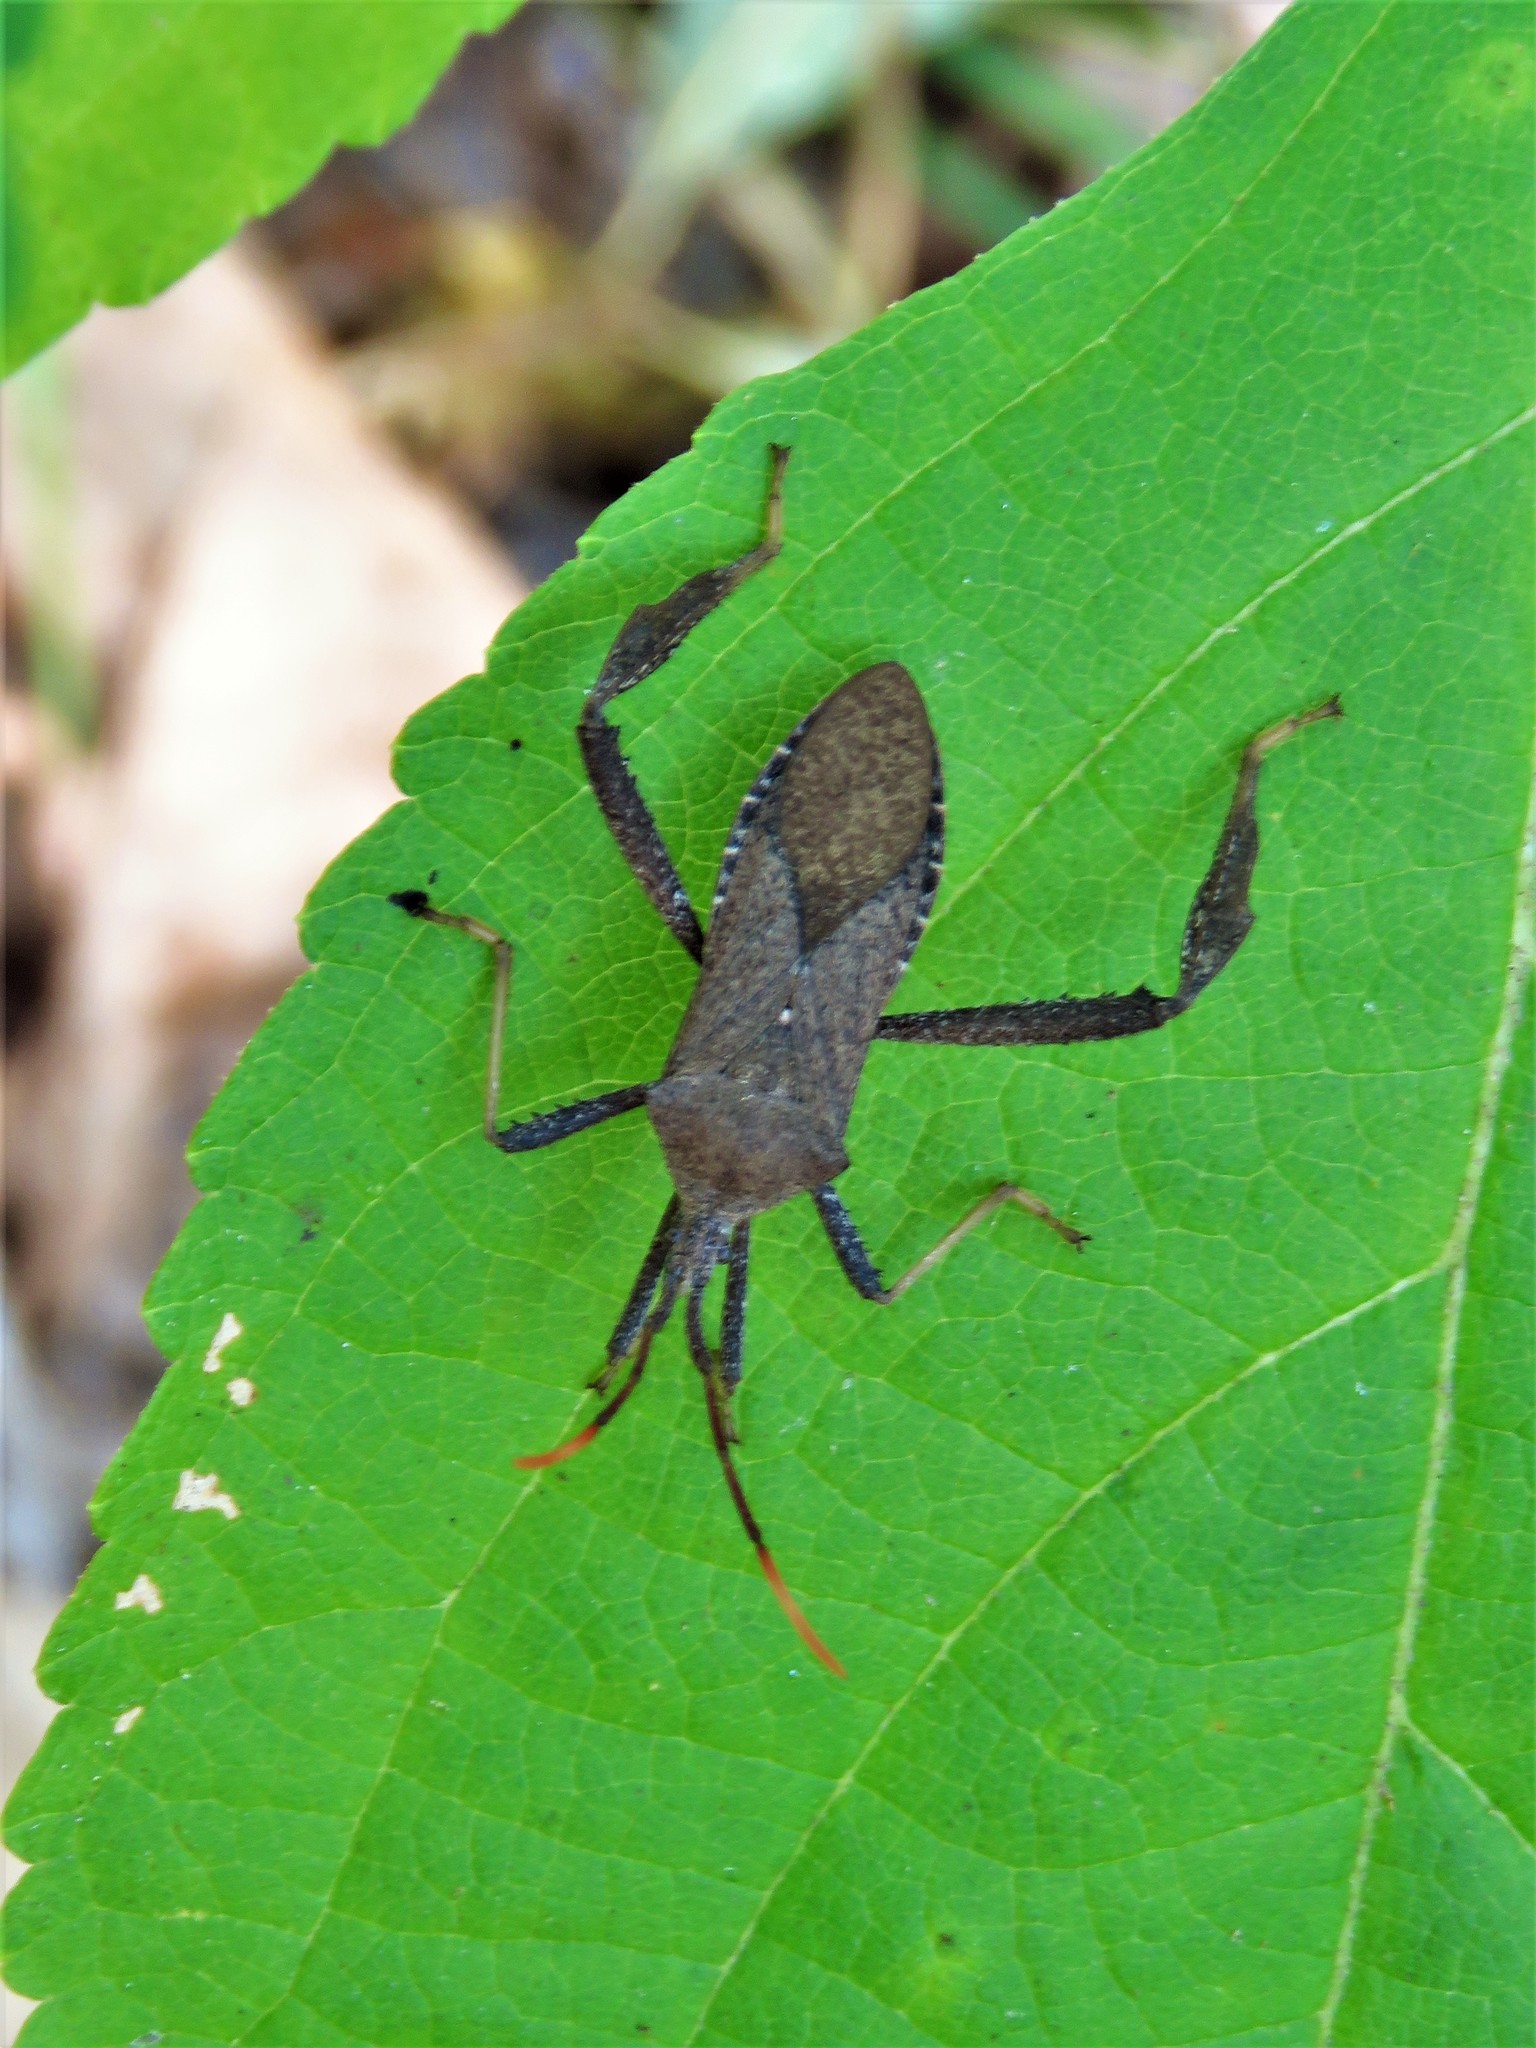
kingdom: Animalia
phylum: Arthropoda
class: Insecta
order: Hemiptera
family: Coreidae
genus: Acanthocephala
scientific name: Acanthocephala terminalis
